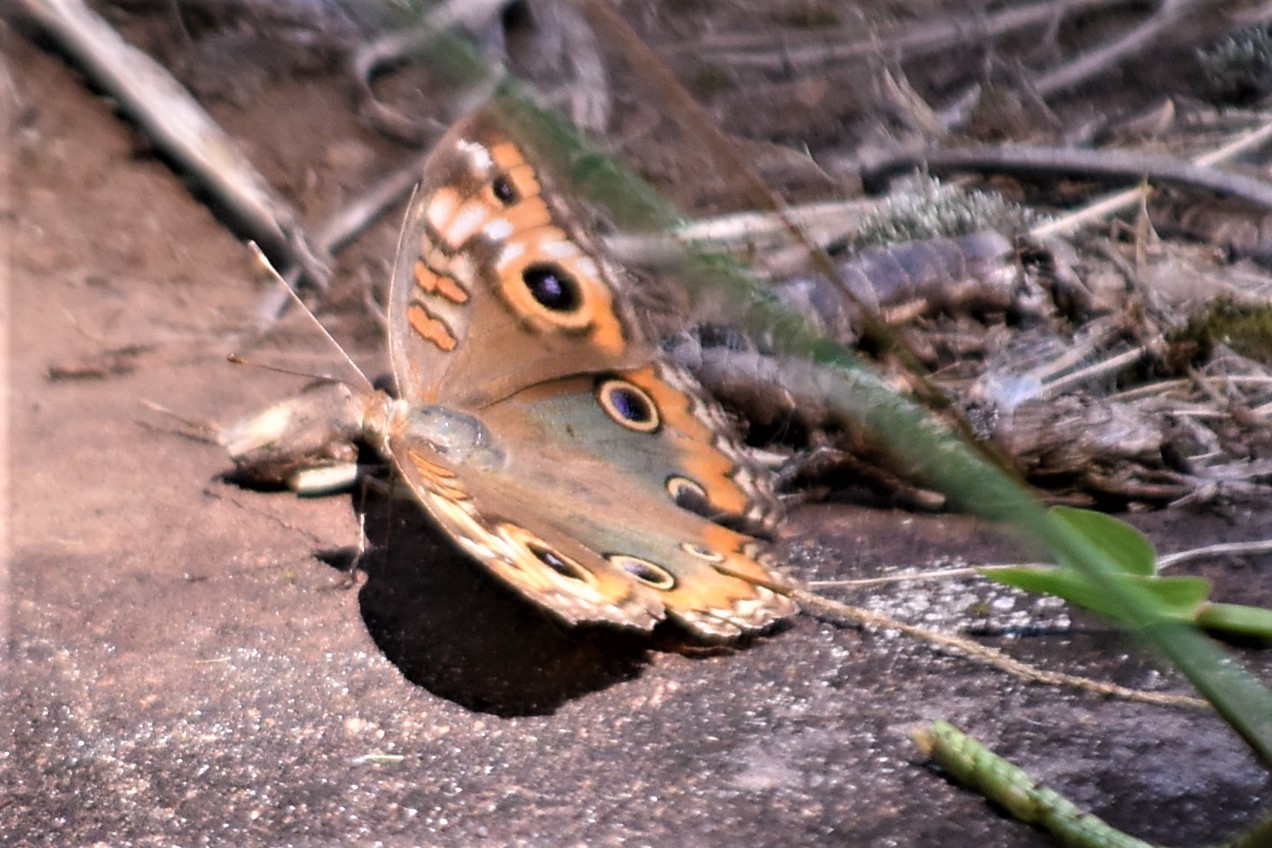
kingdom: Animalia
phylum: Arthropoda
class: Insecta
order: Lepidoptera
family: Nymphalidae
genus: Junonia
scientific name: Junonia lavinia
